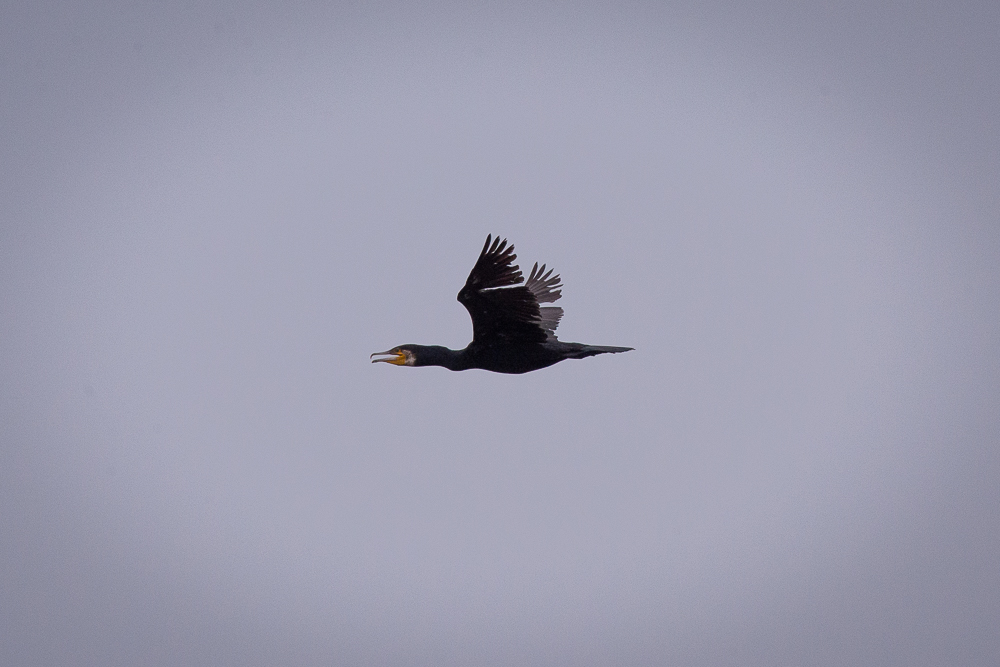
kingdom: Animalia
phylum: Chordata
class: Aves
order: Suliformes
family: Phalacrocoracidae
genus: Phalacrocorax
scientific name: Phalacrocorax carbo
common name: Great cormorant
